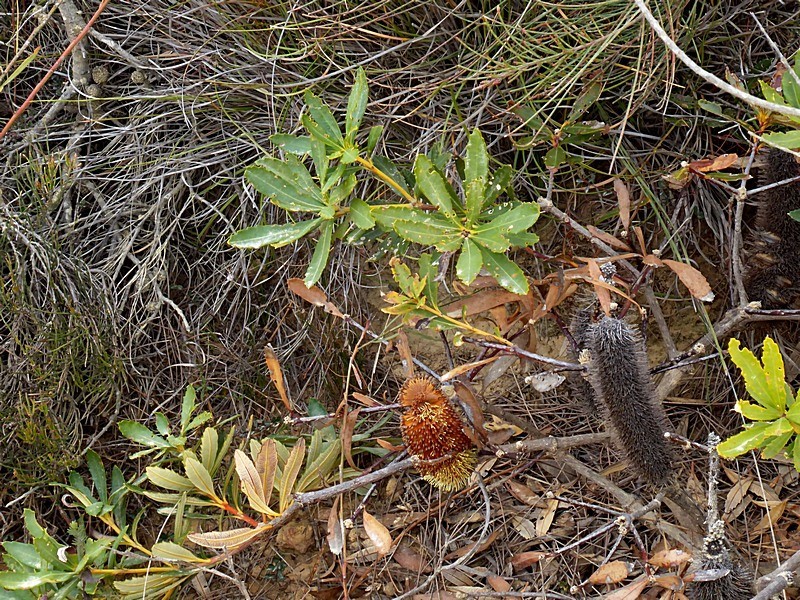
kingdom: Plantae
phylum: Tracheophyta
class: Magnoliopsida
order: Proteales
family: Proteaceae
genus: Banksia
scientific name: Banksia paludosa
